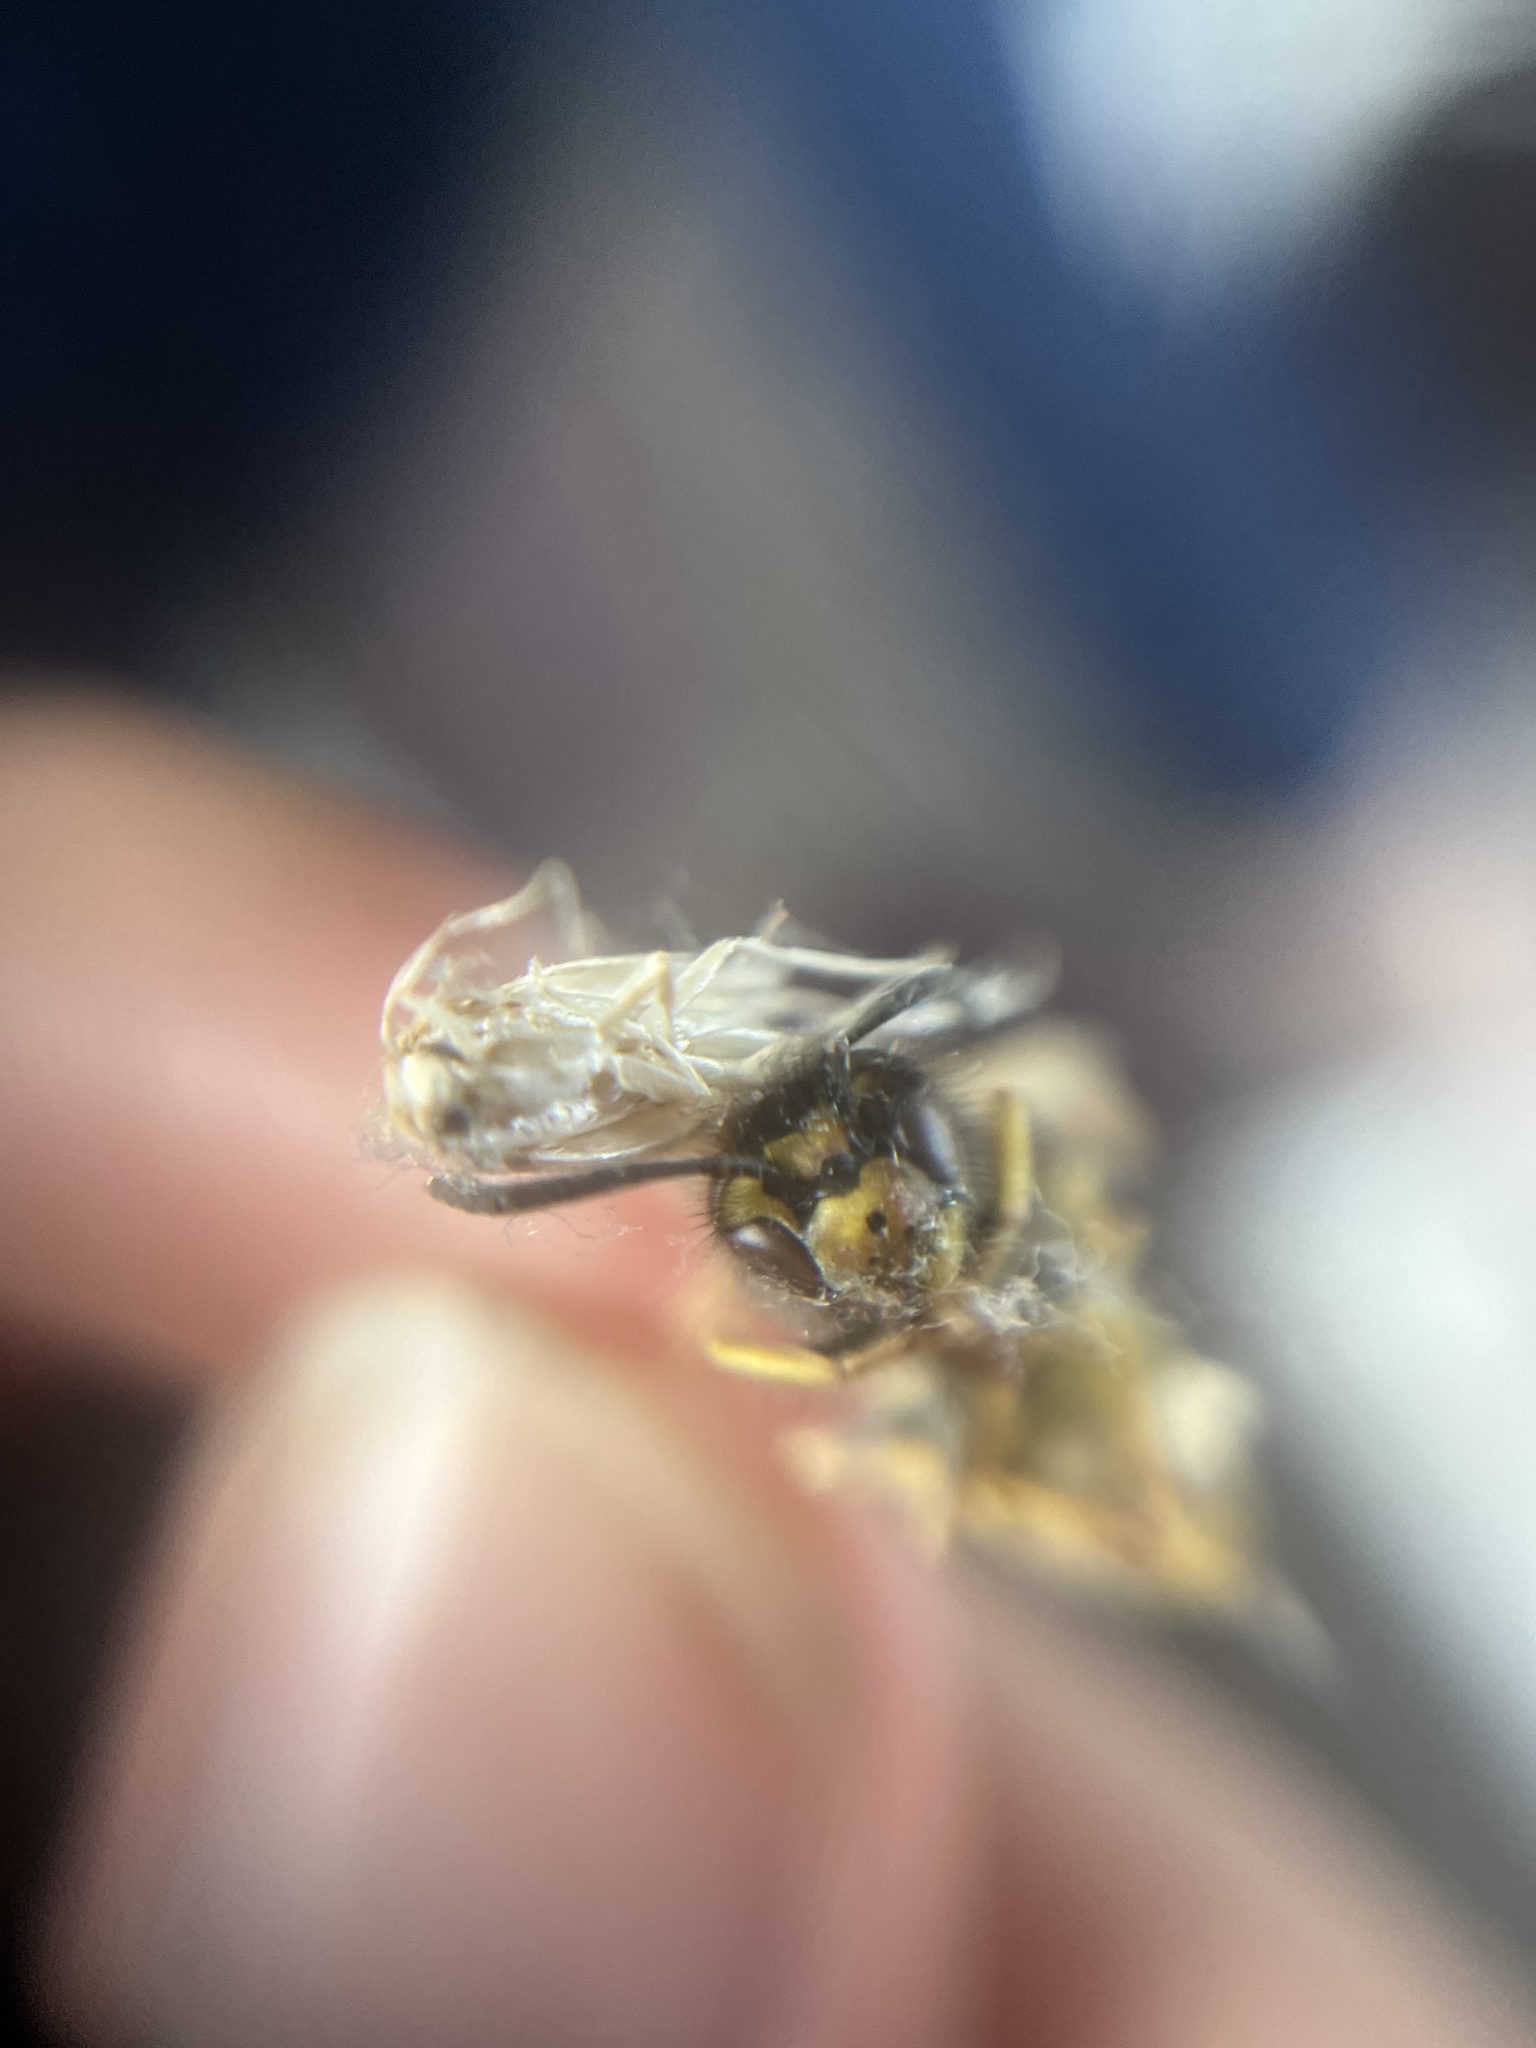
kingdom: Animalia
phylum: Arthropoda
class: Insecta
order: Hymenoptera
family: Vespidae
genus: Vespula
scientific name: Vespula germanica
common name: German wasp
